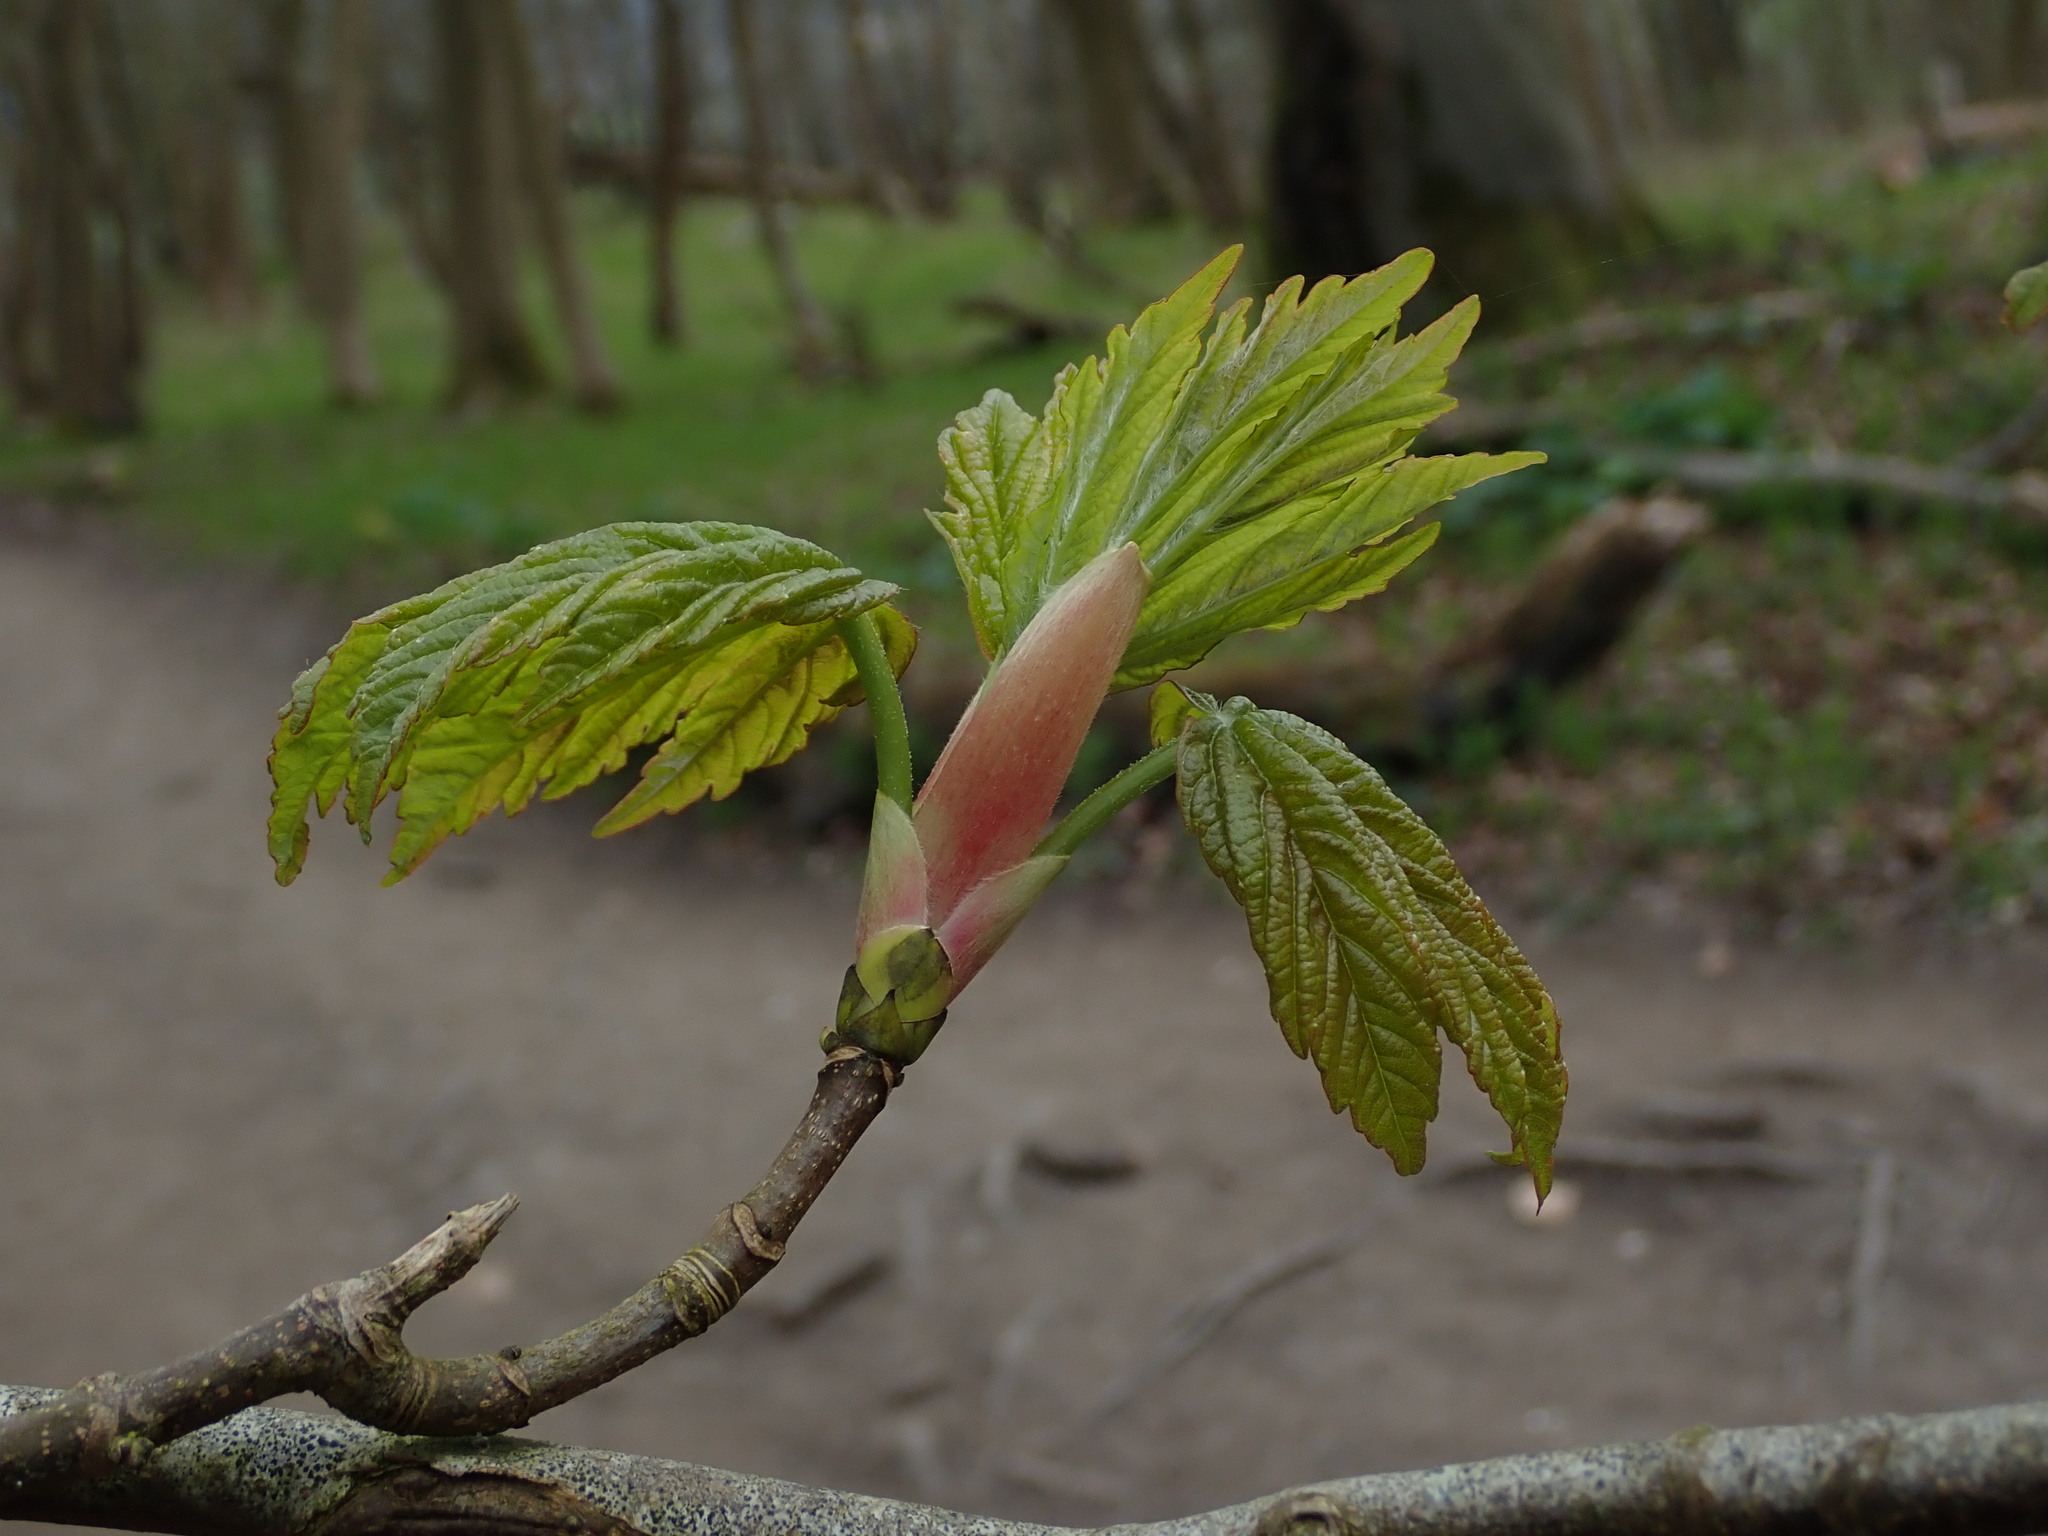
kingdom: Plantae
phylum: Tracheophyta
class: Magnoliopsida
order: Sapindales
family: Sapindaceae
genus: Acer
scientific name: Acer pseudoplatanus
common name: Sycamore
